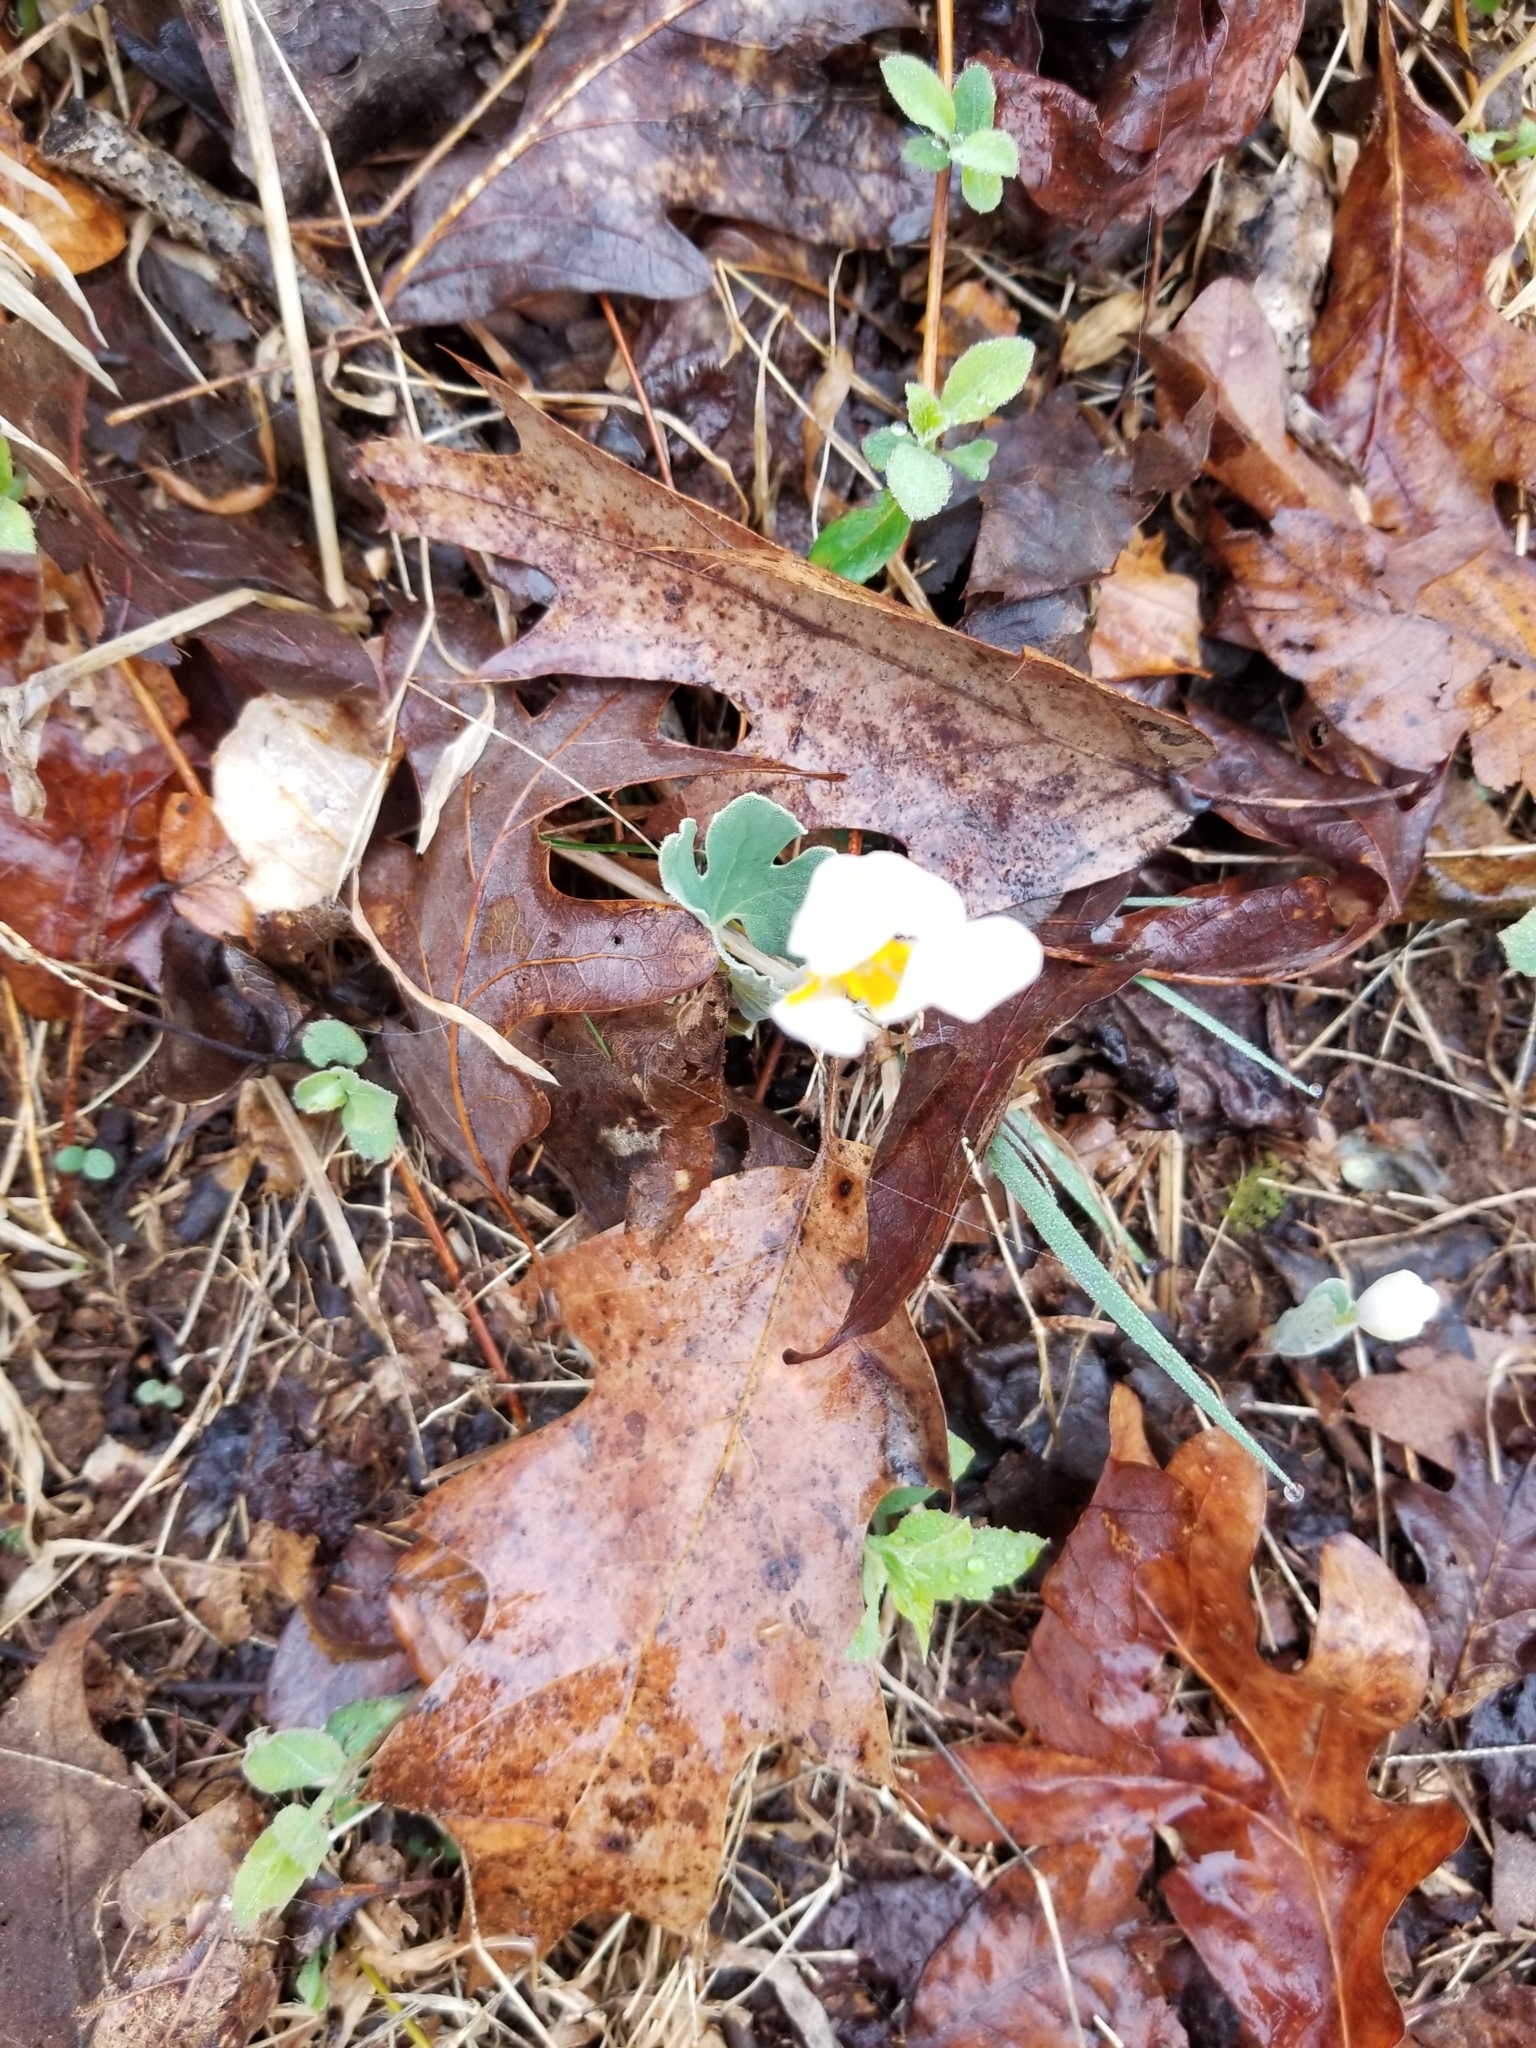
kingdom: Plantae
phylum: Tracheophyta
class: Magnoliopsida
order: Ranunculales
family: Papaveraceae
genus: Sanguinaria
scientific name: Sanguinaria canadensis
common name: Bloodroot
